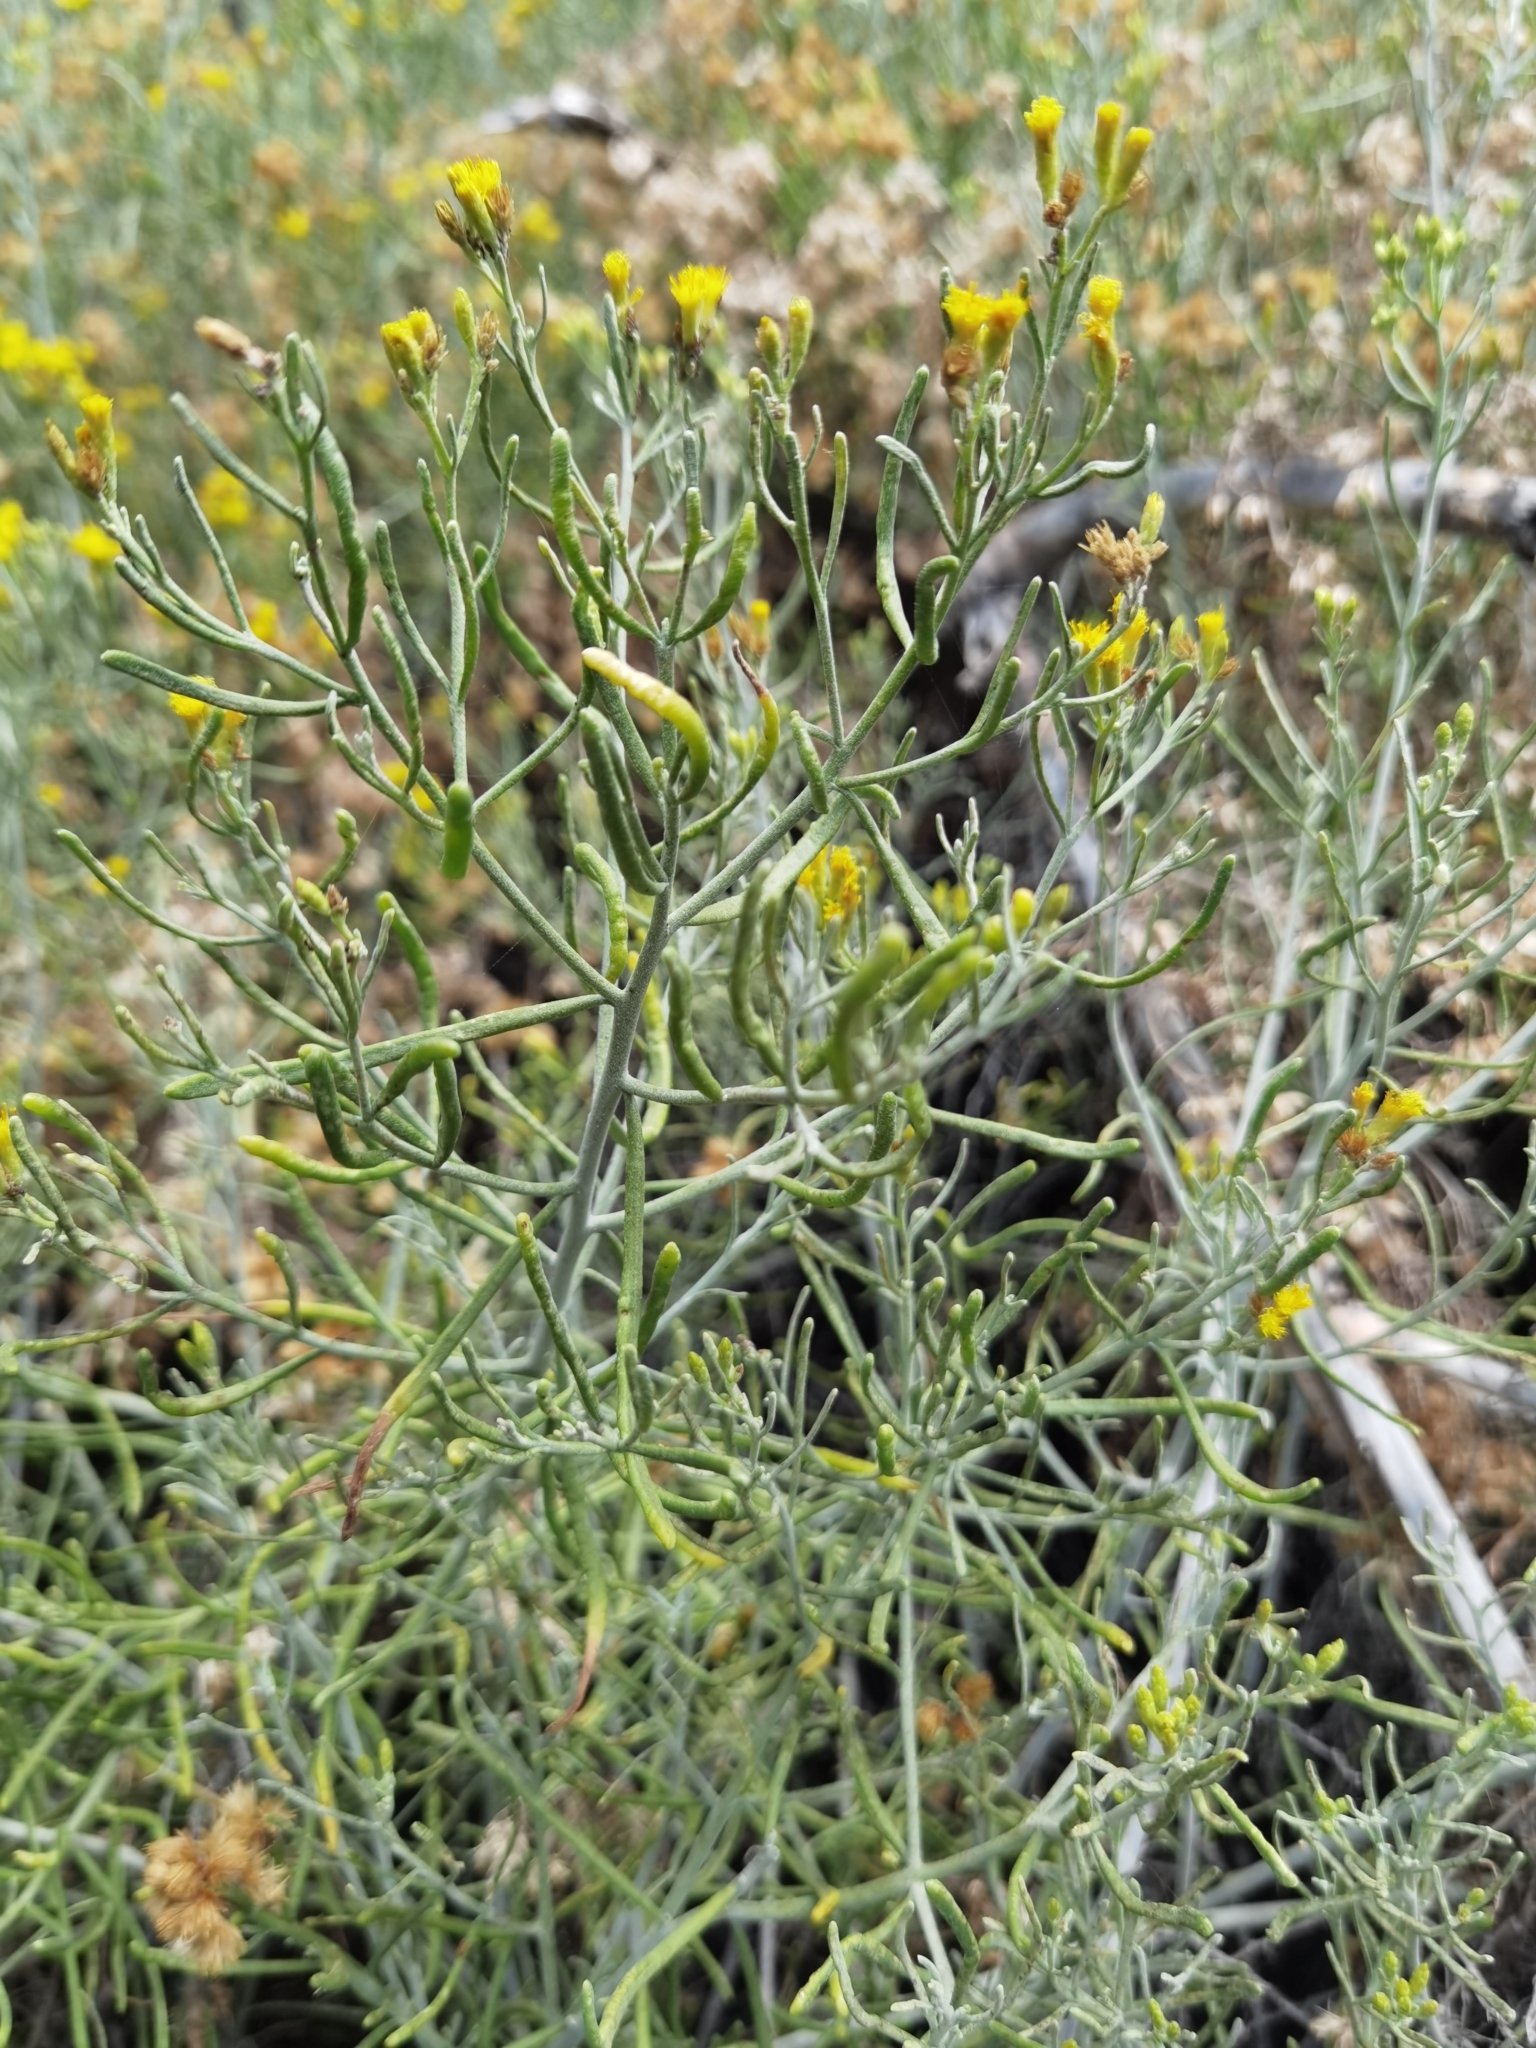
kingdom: Plantae
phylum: Tracheophyta
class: Magnoliopsida
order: Asterales
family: Asteraceae
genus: Schizogyne
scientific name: Schizogyne sericea
